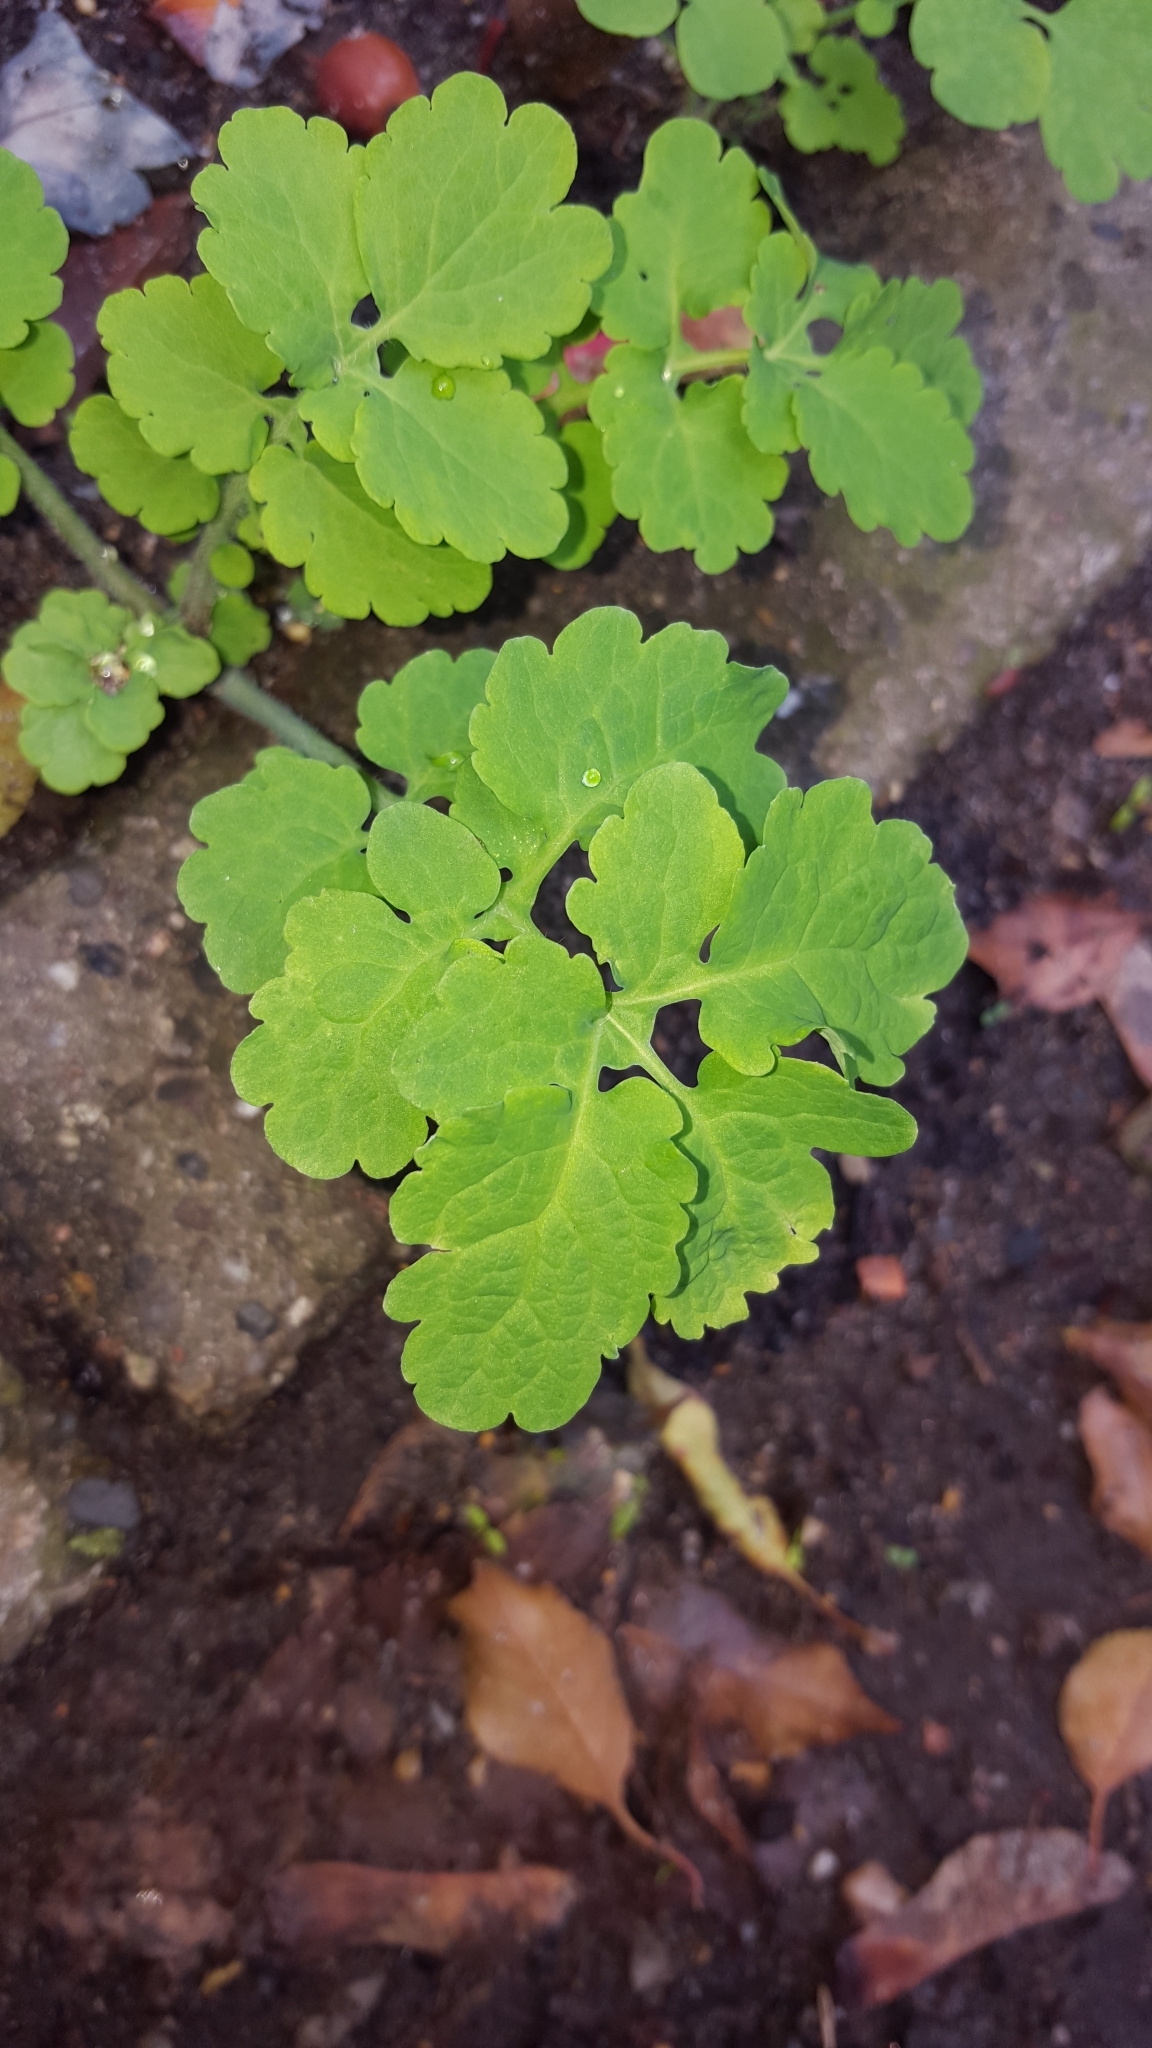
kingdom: Plantae
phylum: Tracheophyta
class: Magnoliopsida
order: Ranunculales
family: Papaveraceae
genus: Chelidonium
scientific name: Chelidonium majus
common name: Greater celandine
